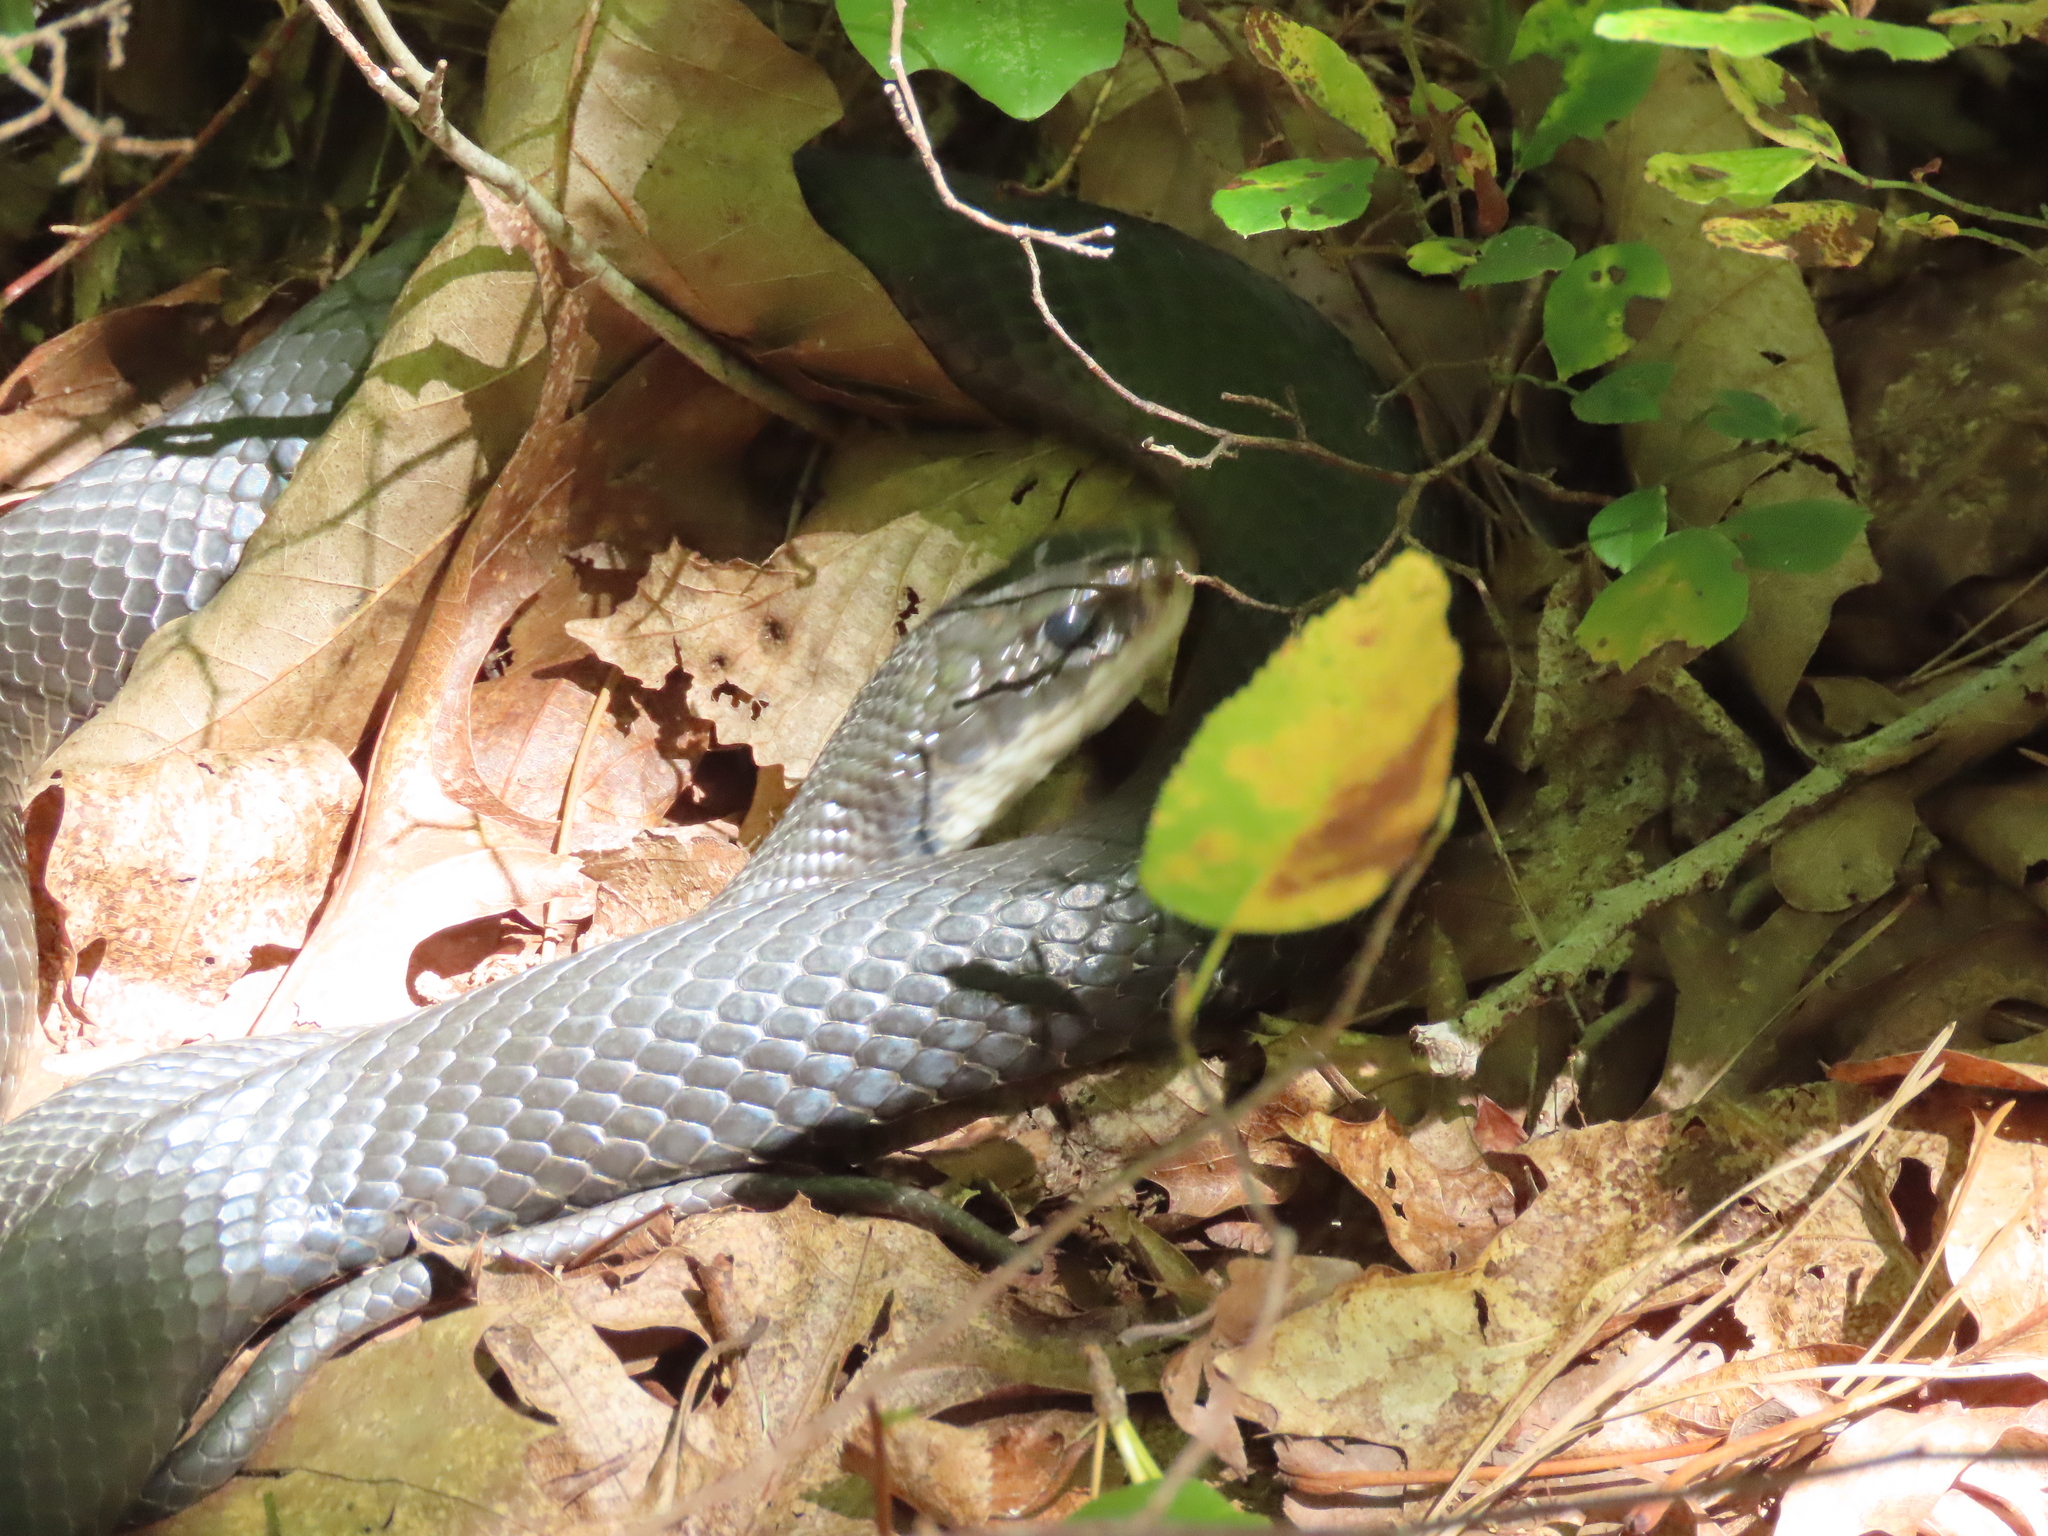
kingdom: Animalia
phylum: Chordata
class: Squamata
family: Colubridae
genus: Coluber
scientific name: Coluber constrictor
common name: Eastern racer
